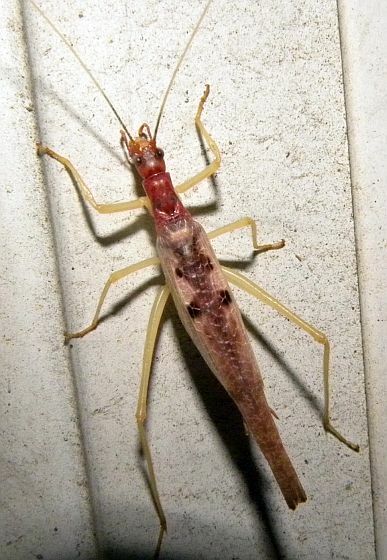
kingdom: Animalia
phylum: Arthropoda
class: Insecta
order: Orthoptera
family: Gryllidae
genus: Neoxabea
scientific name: Neoxabea bipunctata
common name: Two-spotted tree cricket
